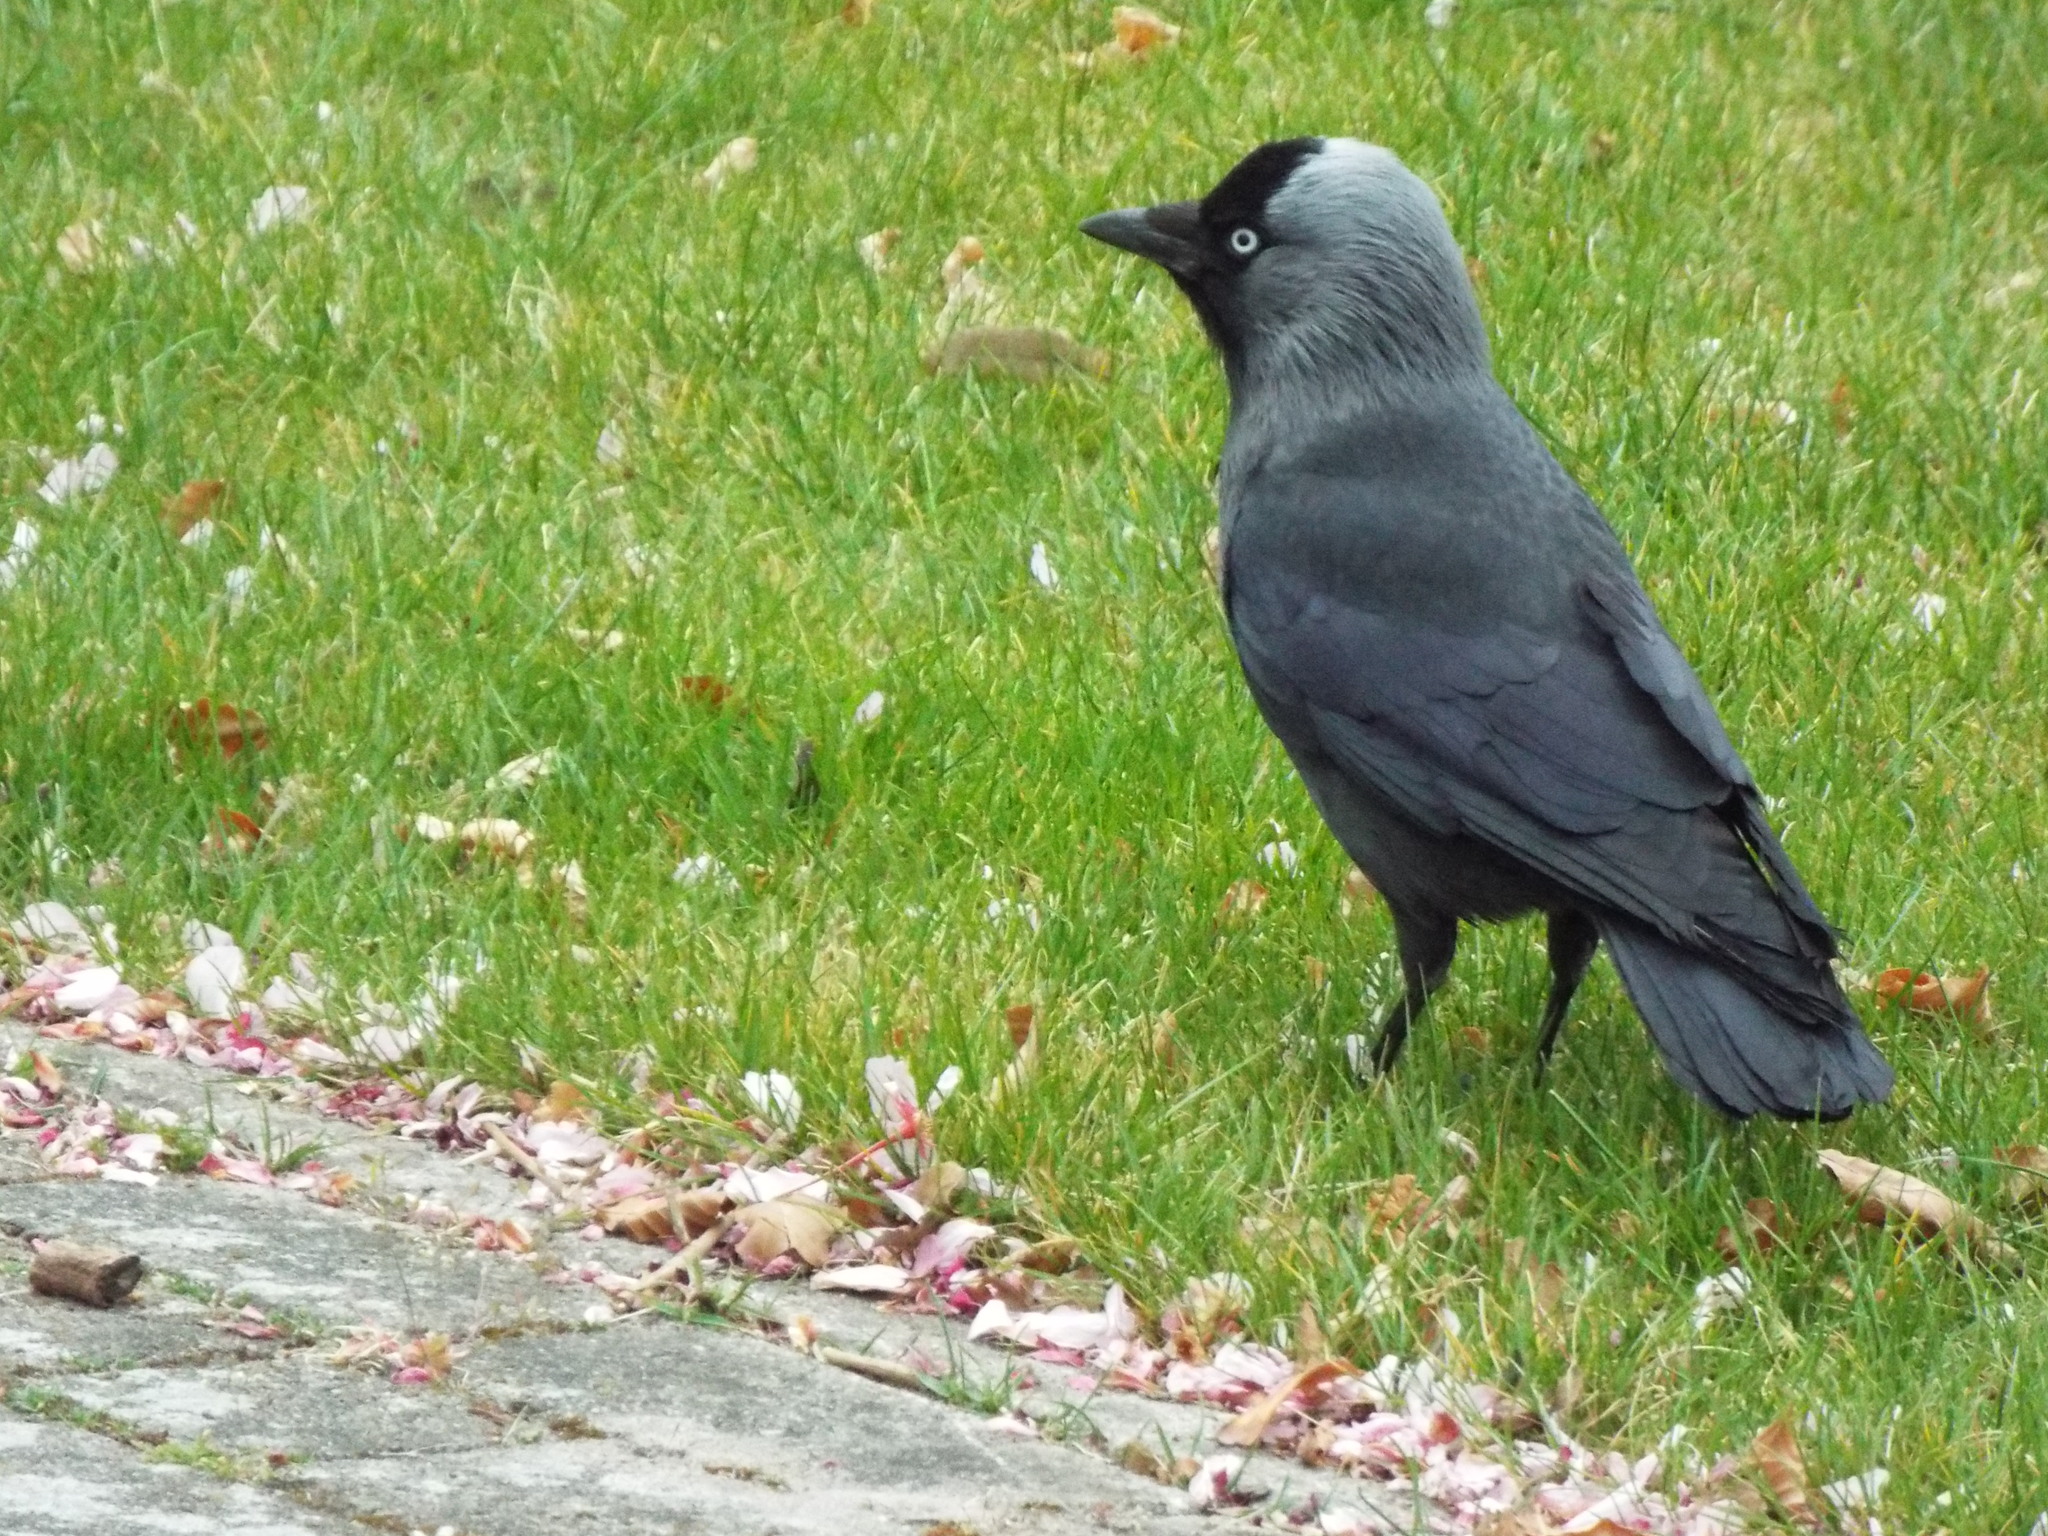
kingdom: Animalia
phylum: Chordata
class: Aves
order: Passeriformes
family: Corvidae
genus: Coloeus
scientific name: Coloeus monedula
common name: Western jackdaw
